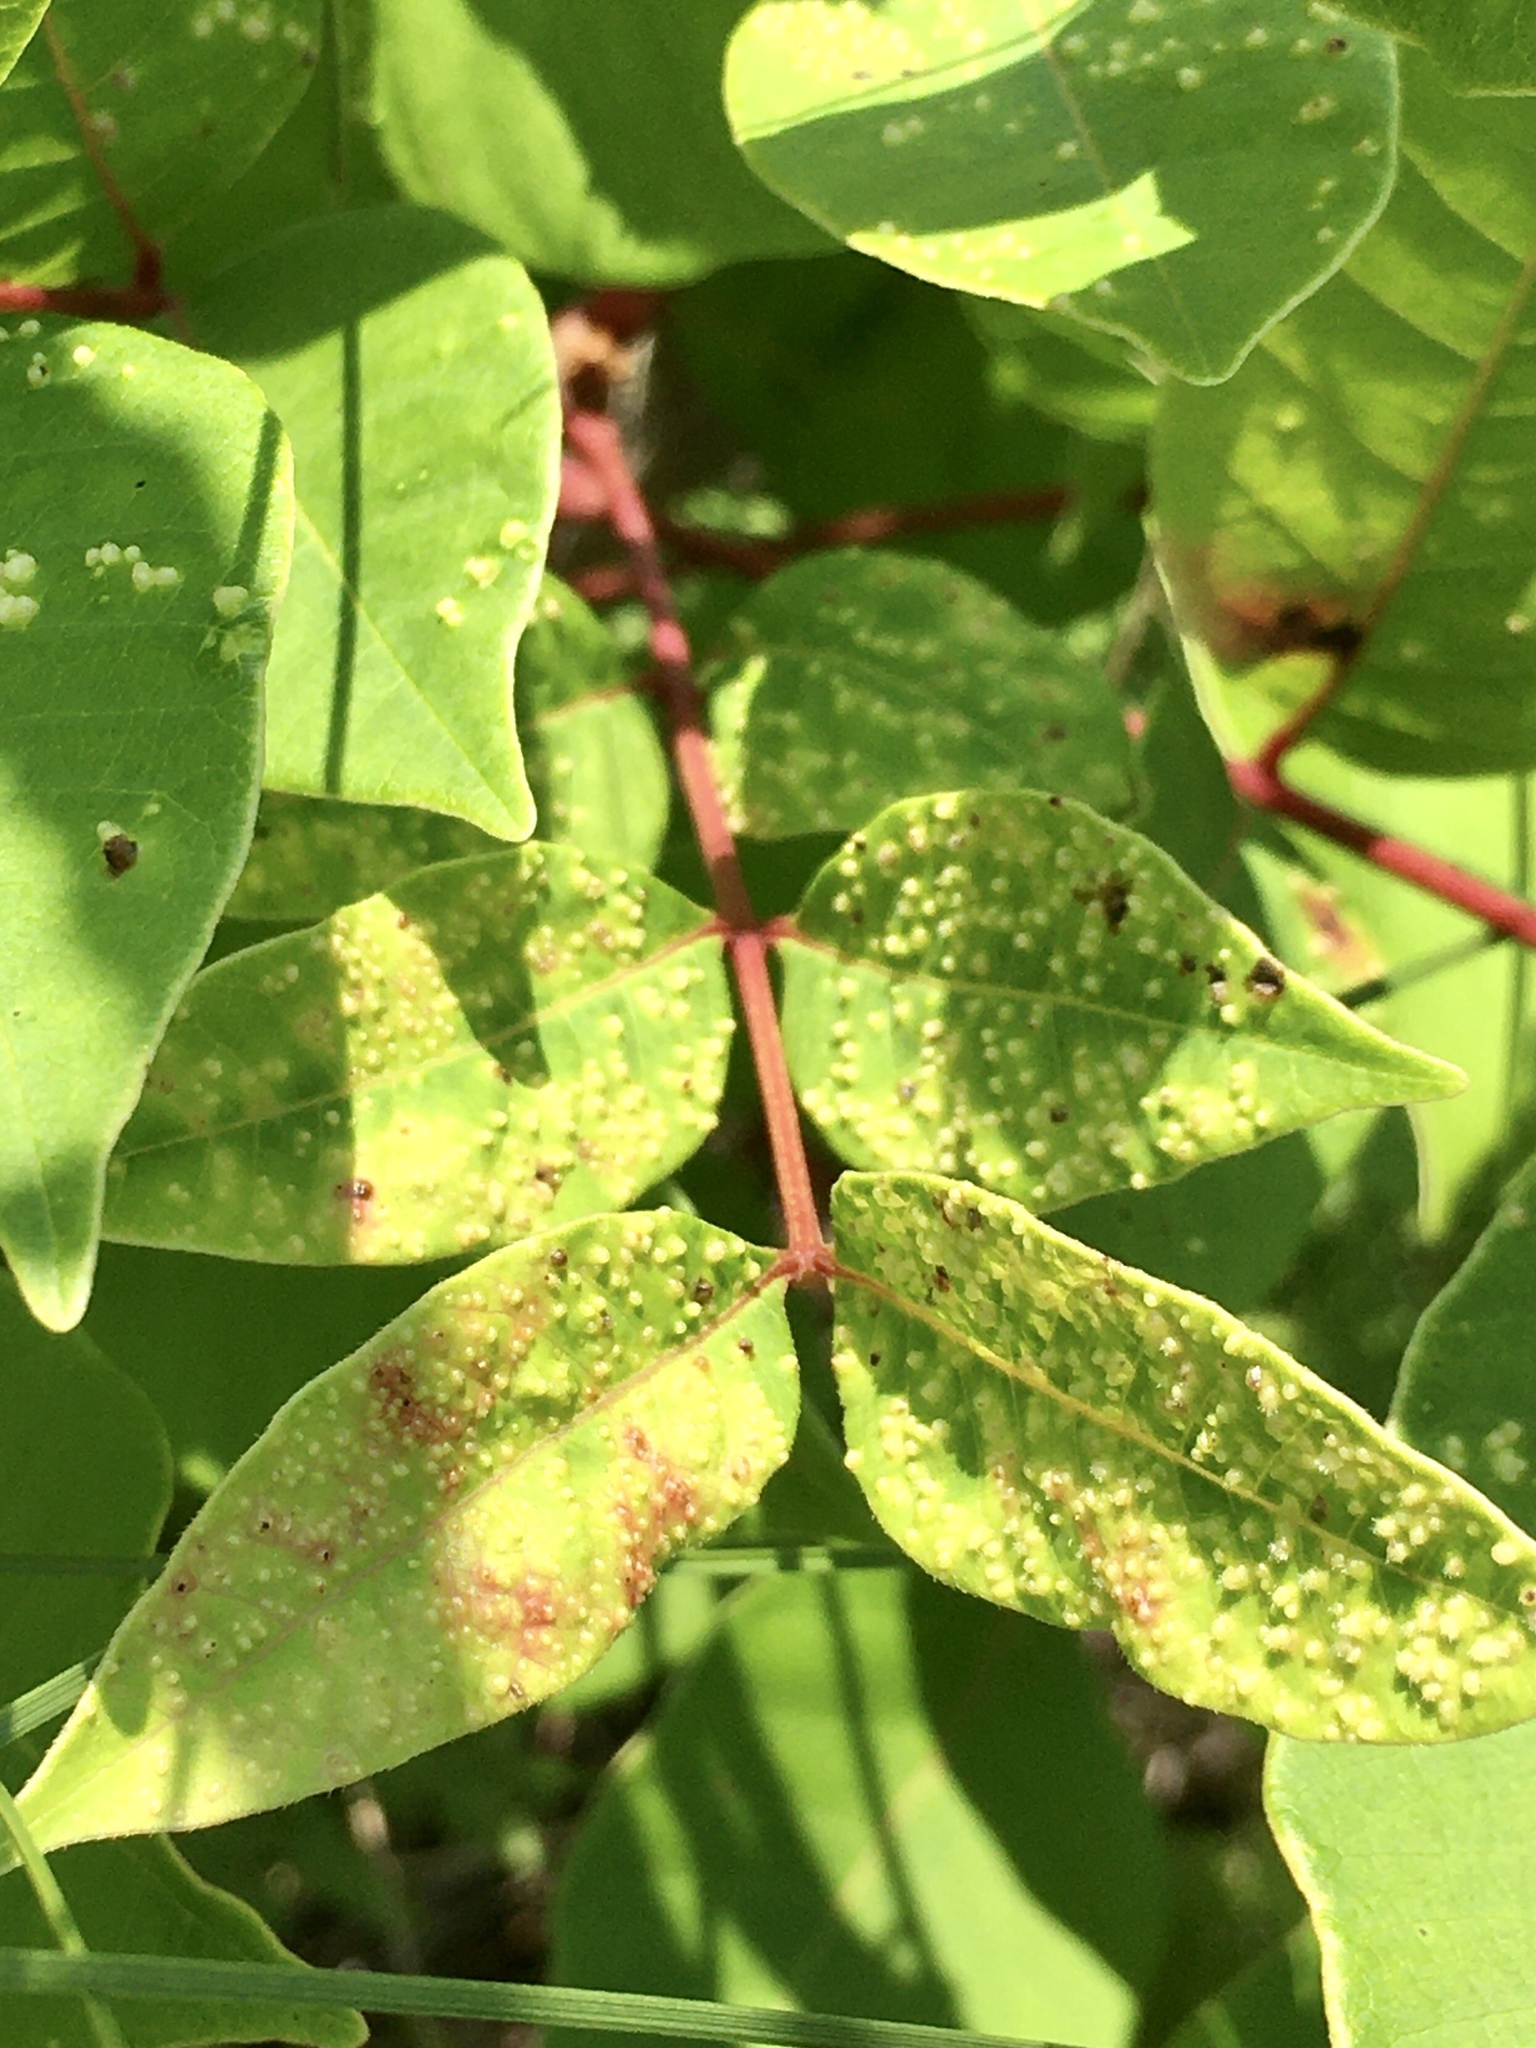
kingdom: Animalia
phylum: Arthropoda
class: Arachnida
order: Trombidiformes
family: Eriophyidae
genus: Aculops
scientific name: Aculops
